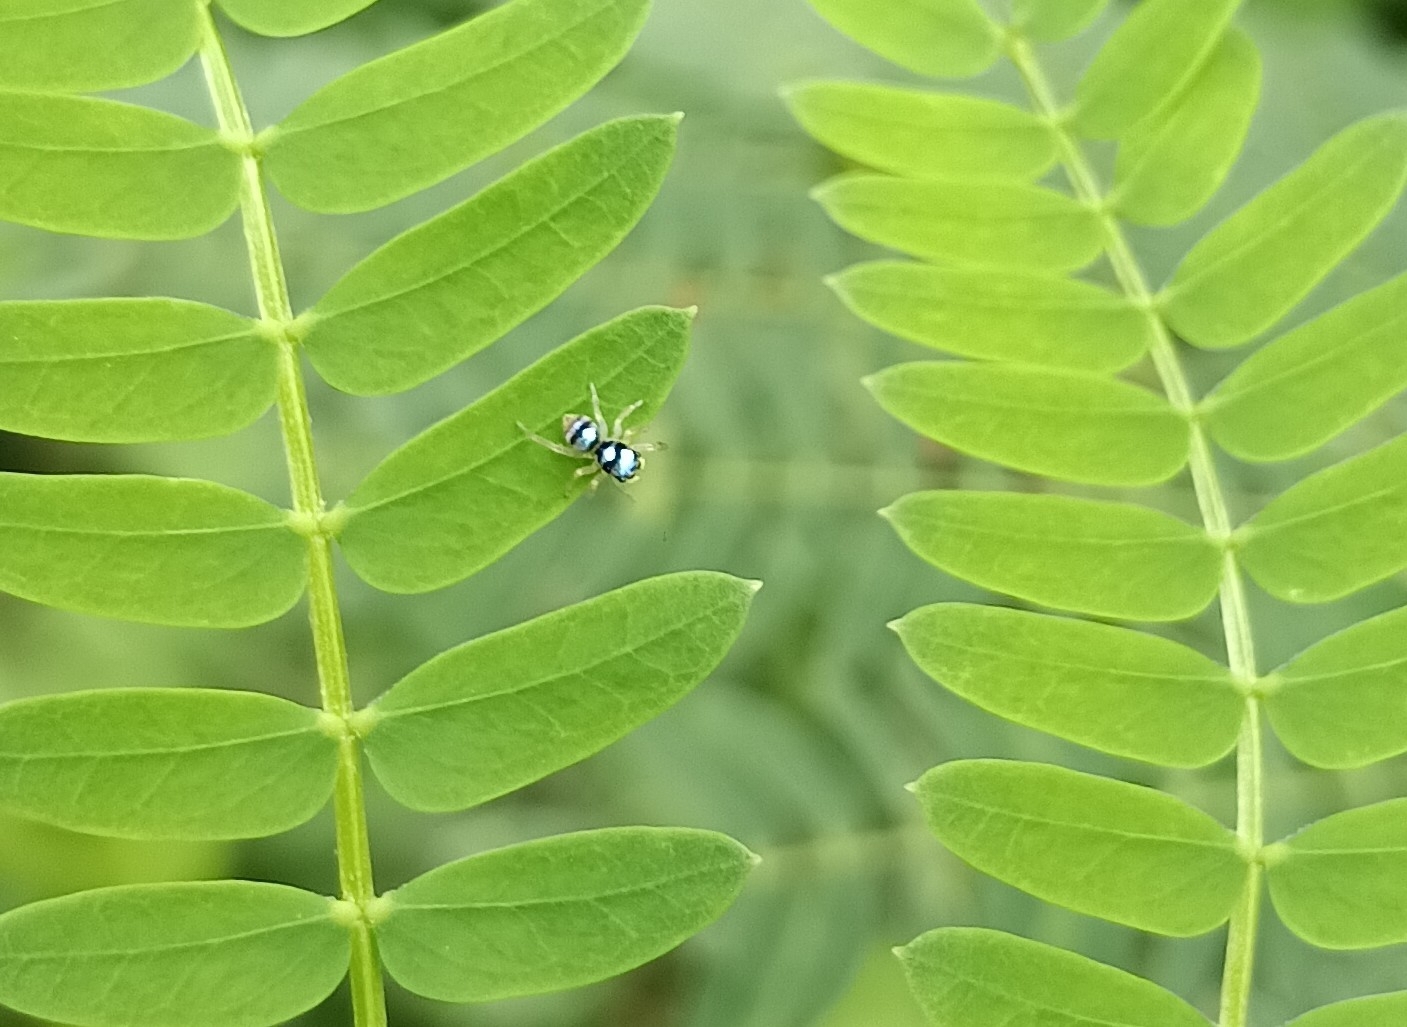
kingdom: Animalia
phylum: Arthropoda
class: Arachnida
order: Araneae
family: Salticidae
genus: Phintella
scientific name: Phintella vittata
